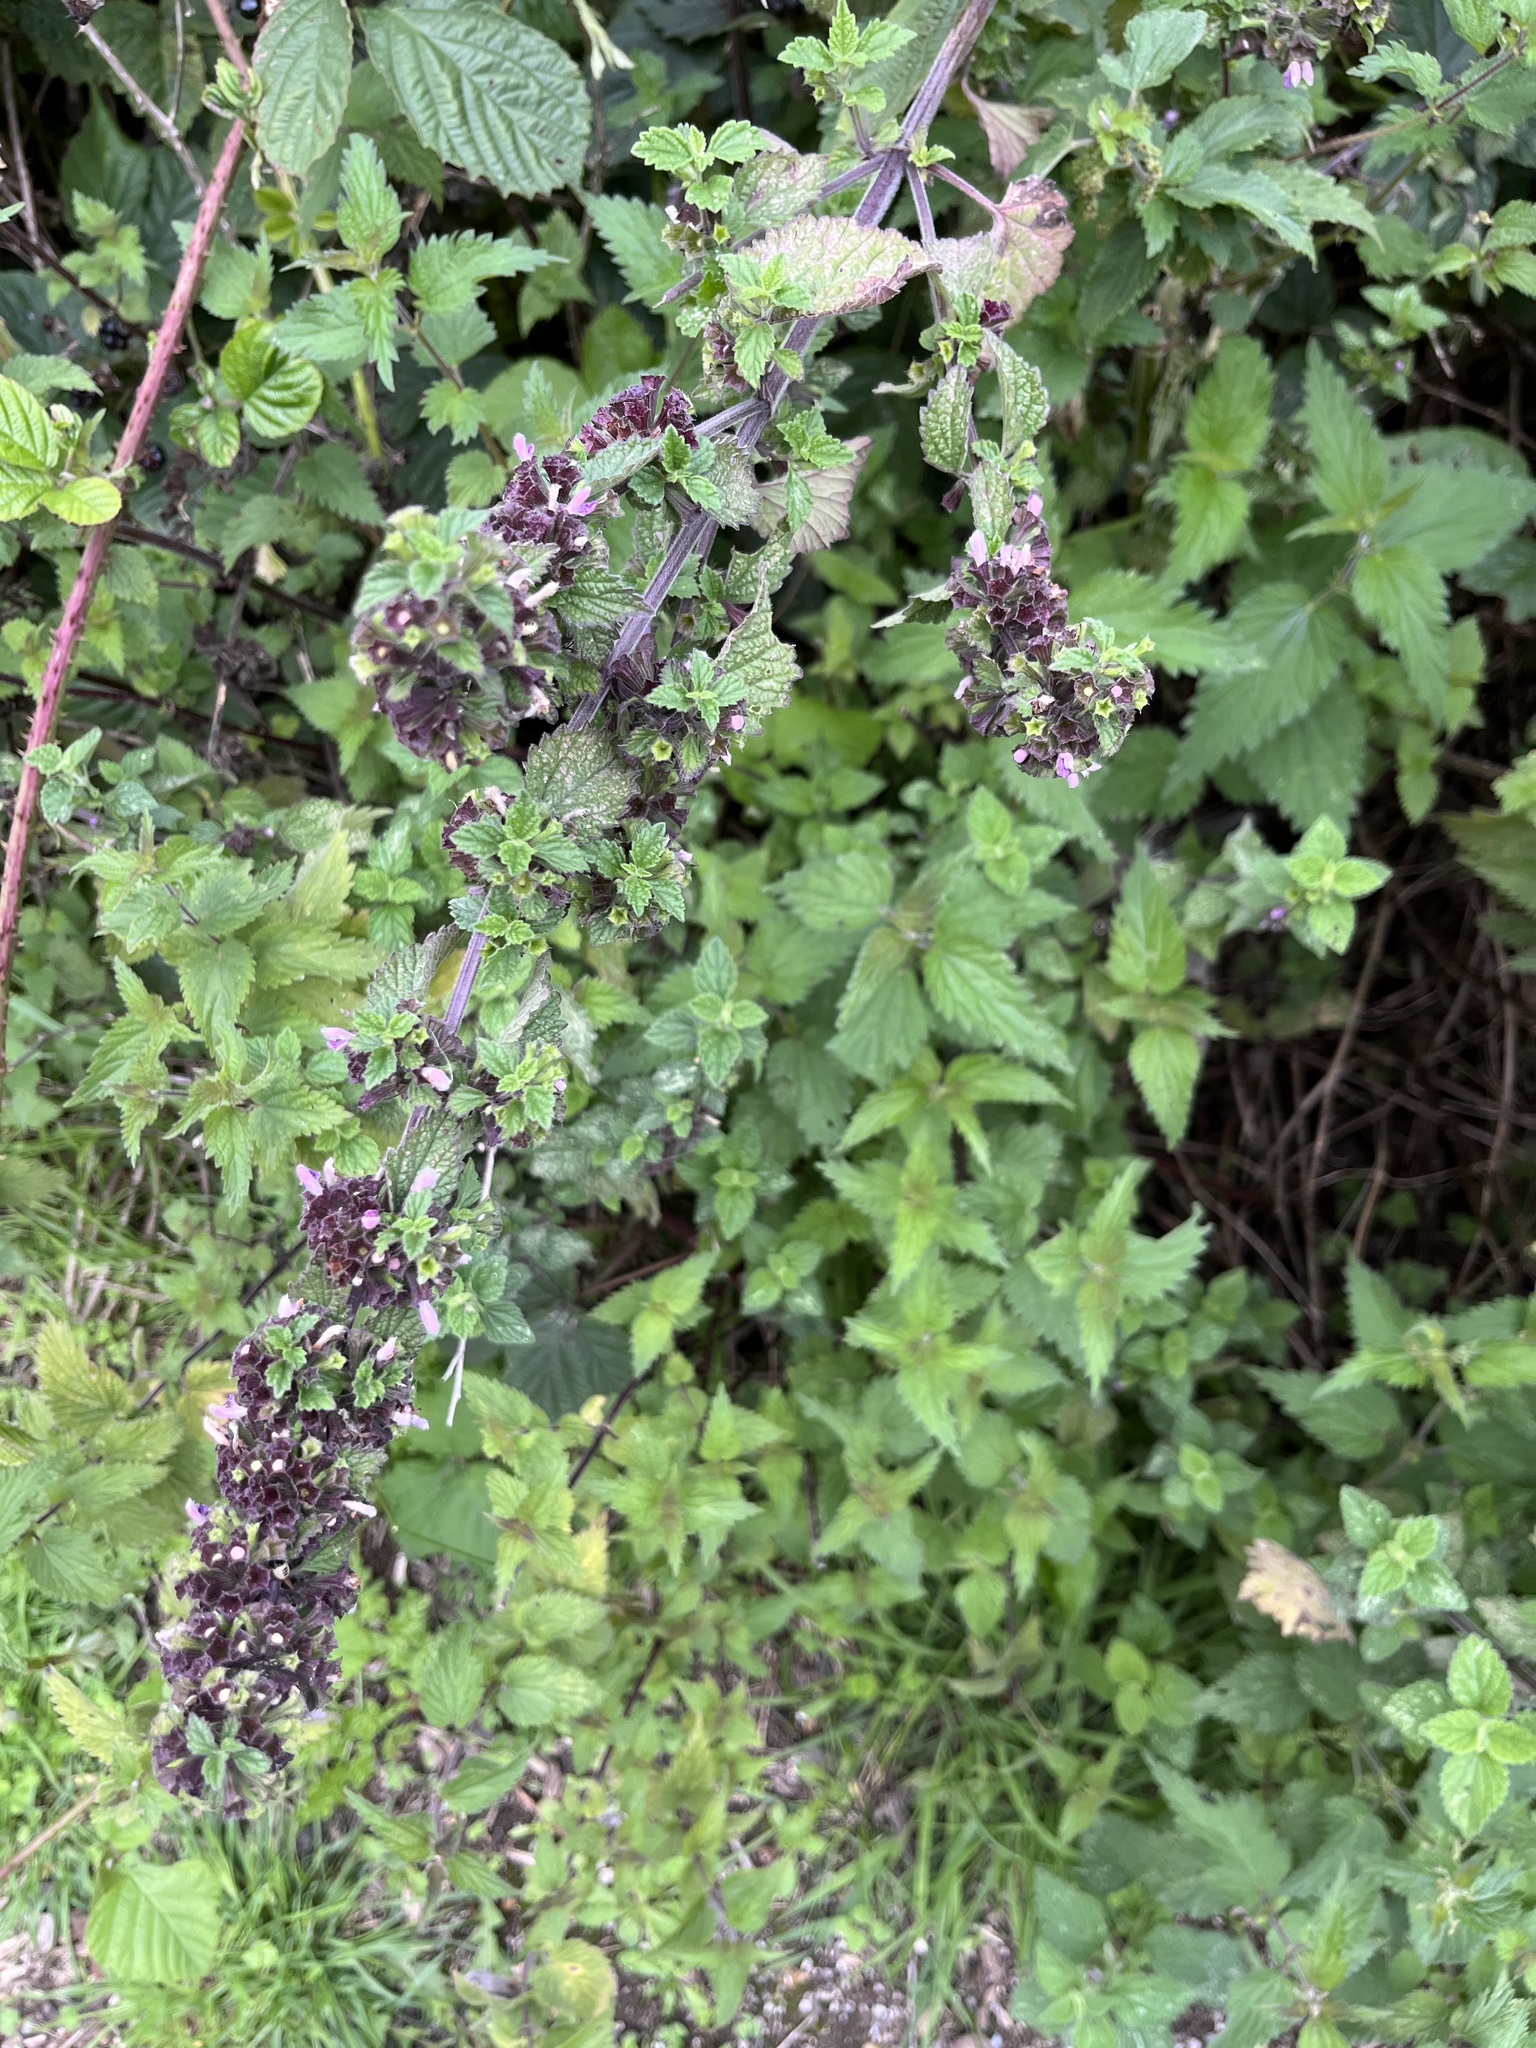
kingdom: Plantae
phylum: Tracheophyta
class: Magnoliopsida
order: Lamiales
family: Lamiaceae
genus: Ballota
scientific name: Ballota nigra
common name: Black horehound
